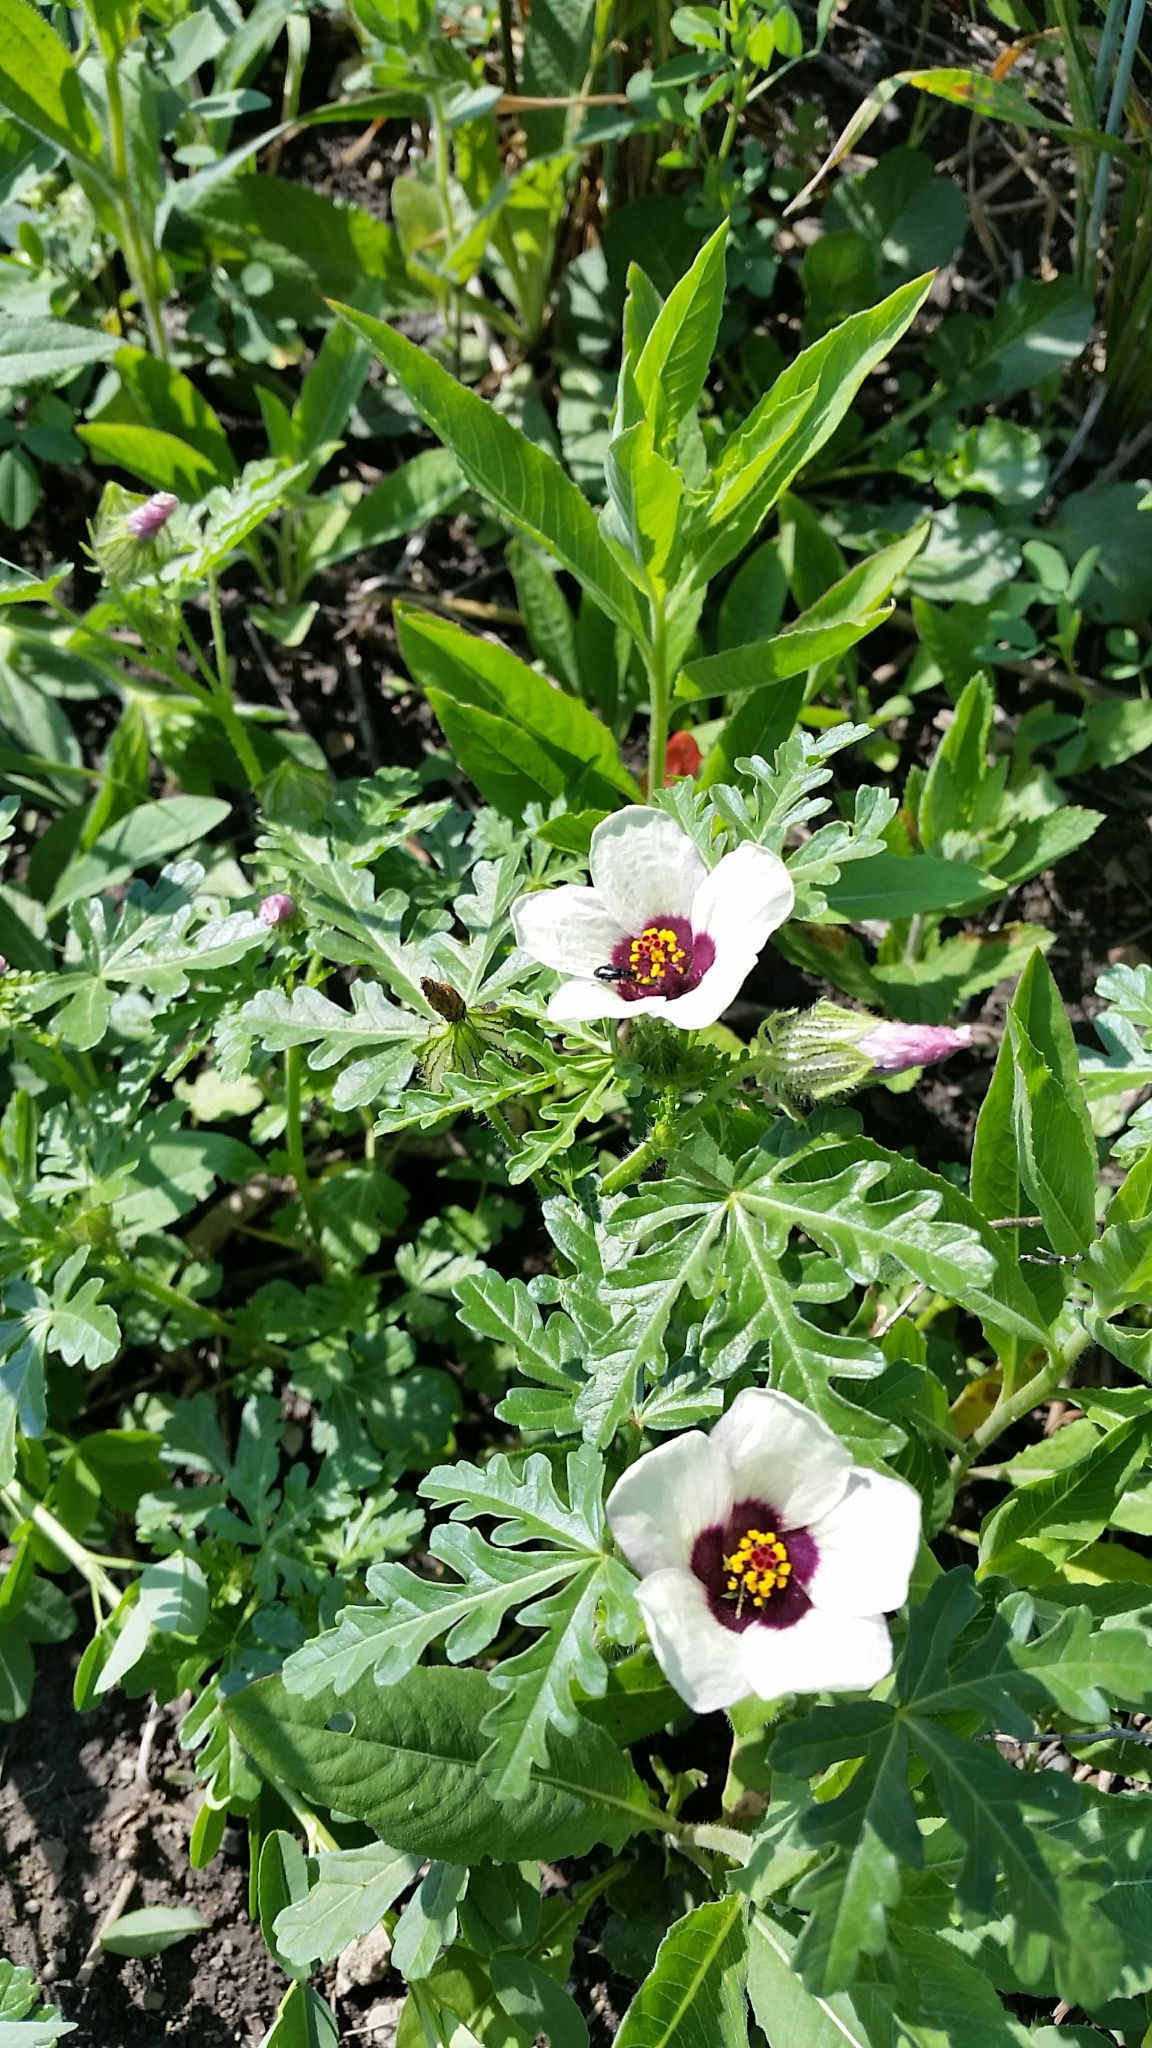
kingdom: Plantae
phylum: Tracheophyta
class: Magnoliopsida
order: Malvales
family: Malvaceae
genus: Hibiscus
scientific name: Hibiscus trionum
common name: Bladder ketmia
